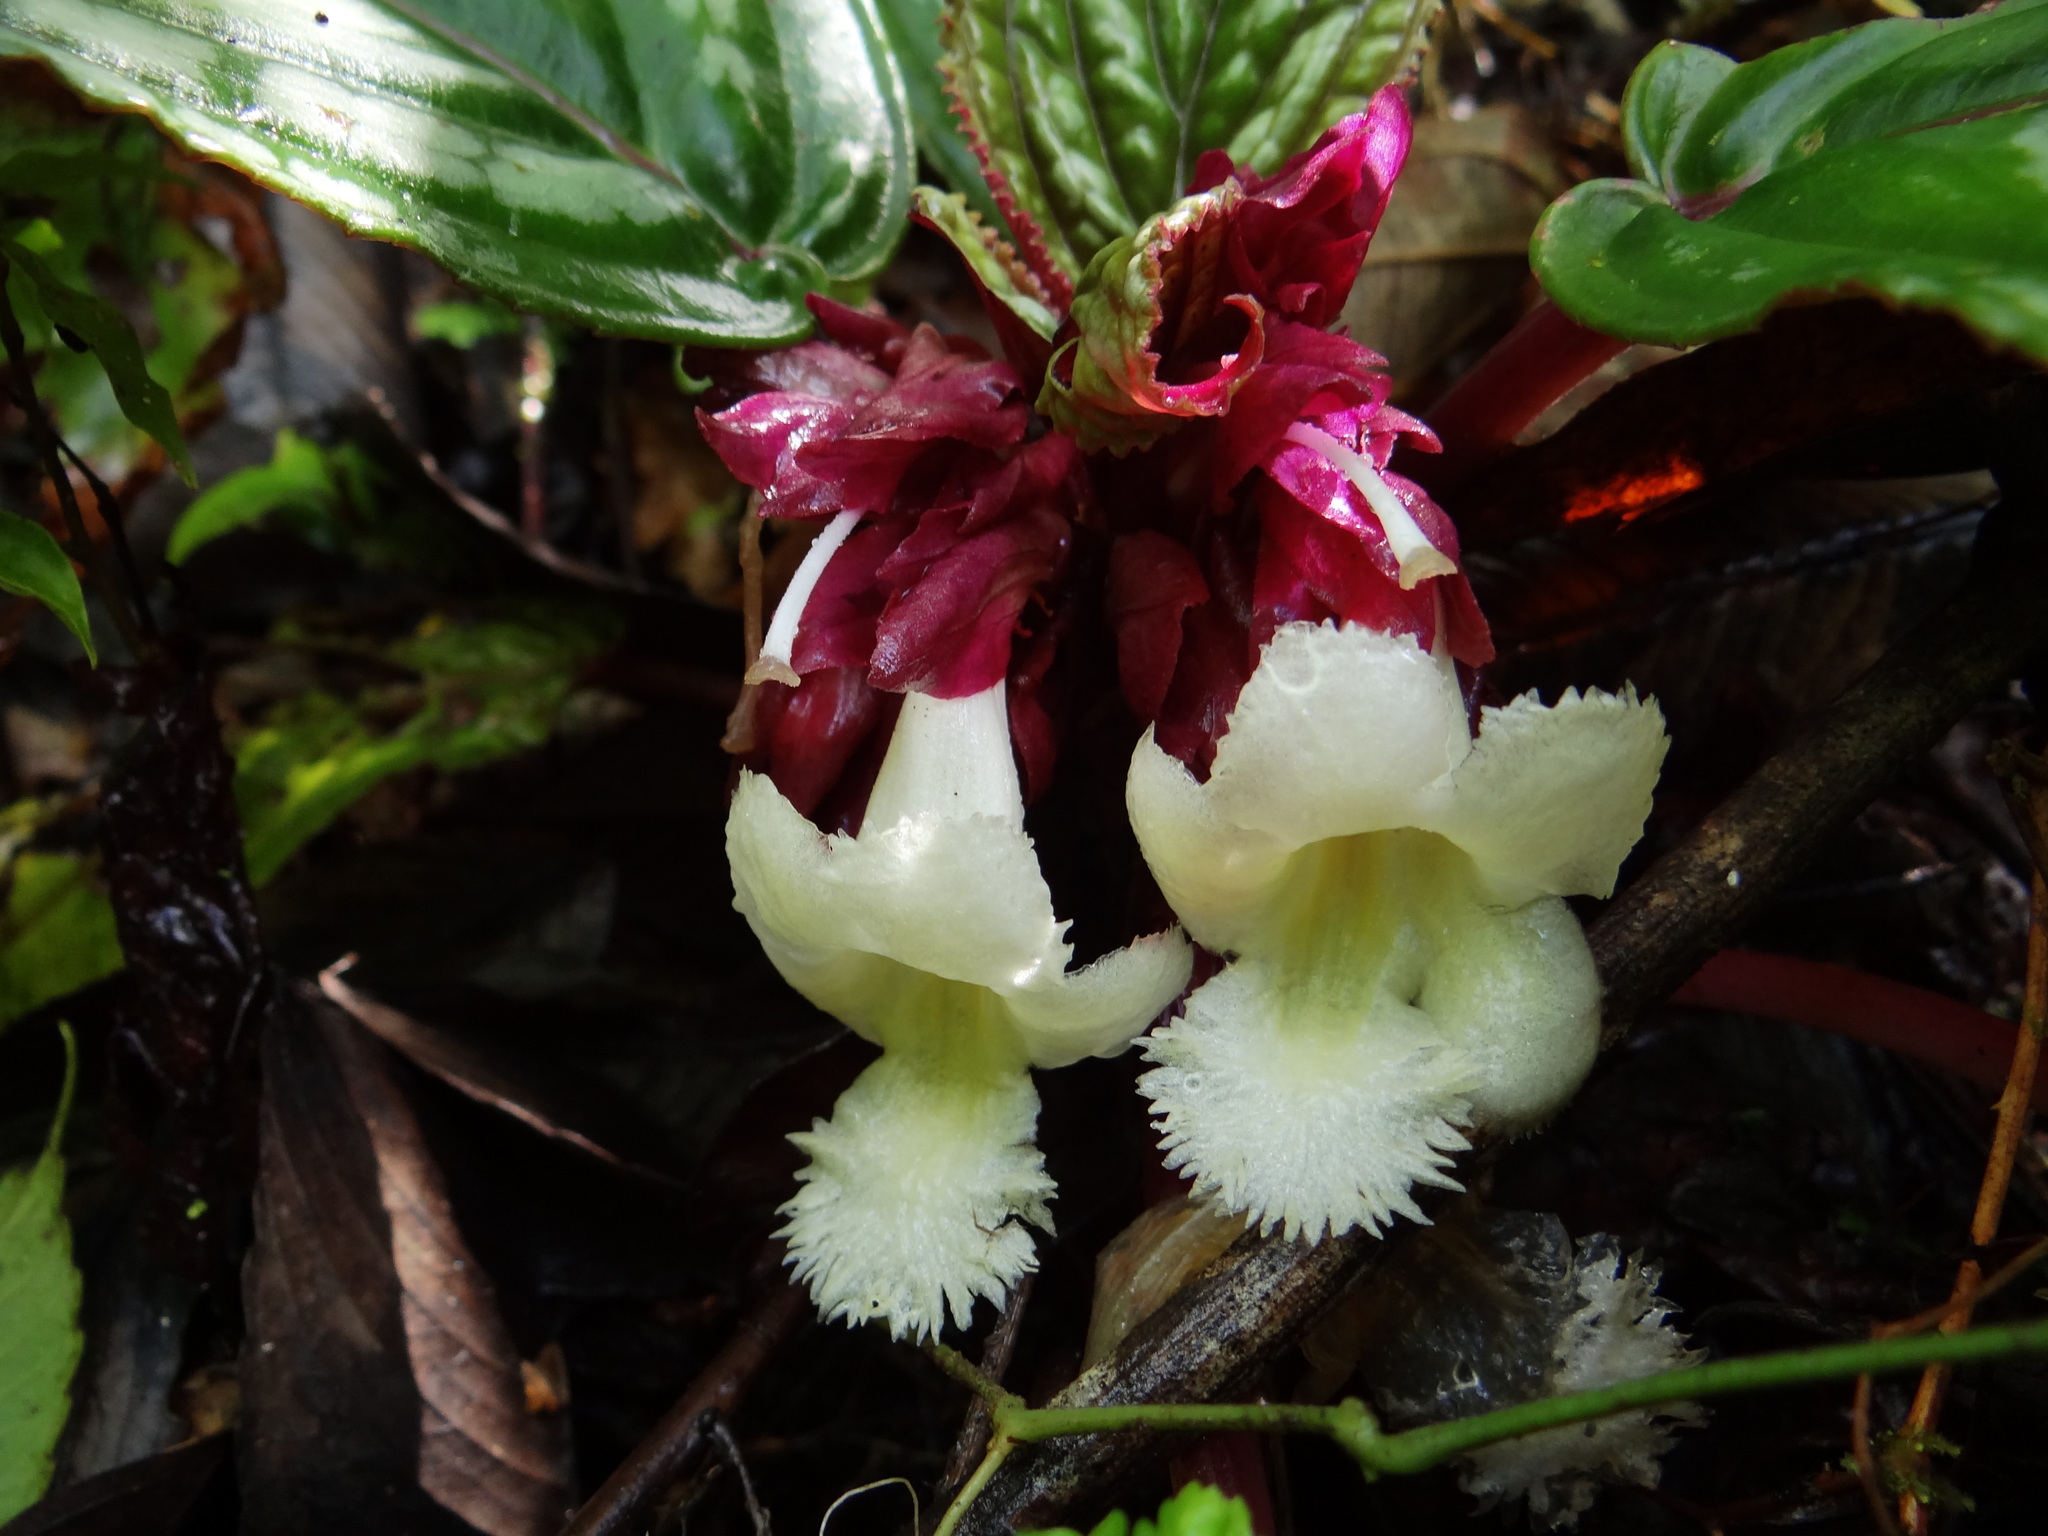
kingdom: Plantae
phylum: Tracheophyta
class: Magnoliopsida
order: Lamiales
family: Gesneriaceae
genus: Drymonia
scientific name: Drymonia turrialvae
